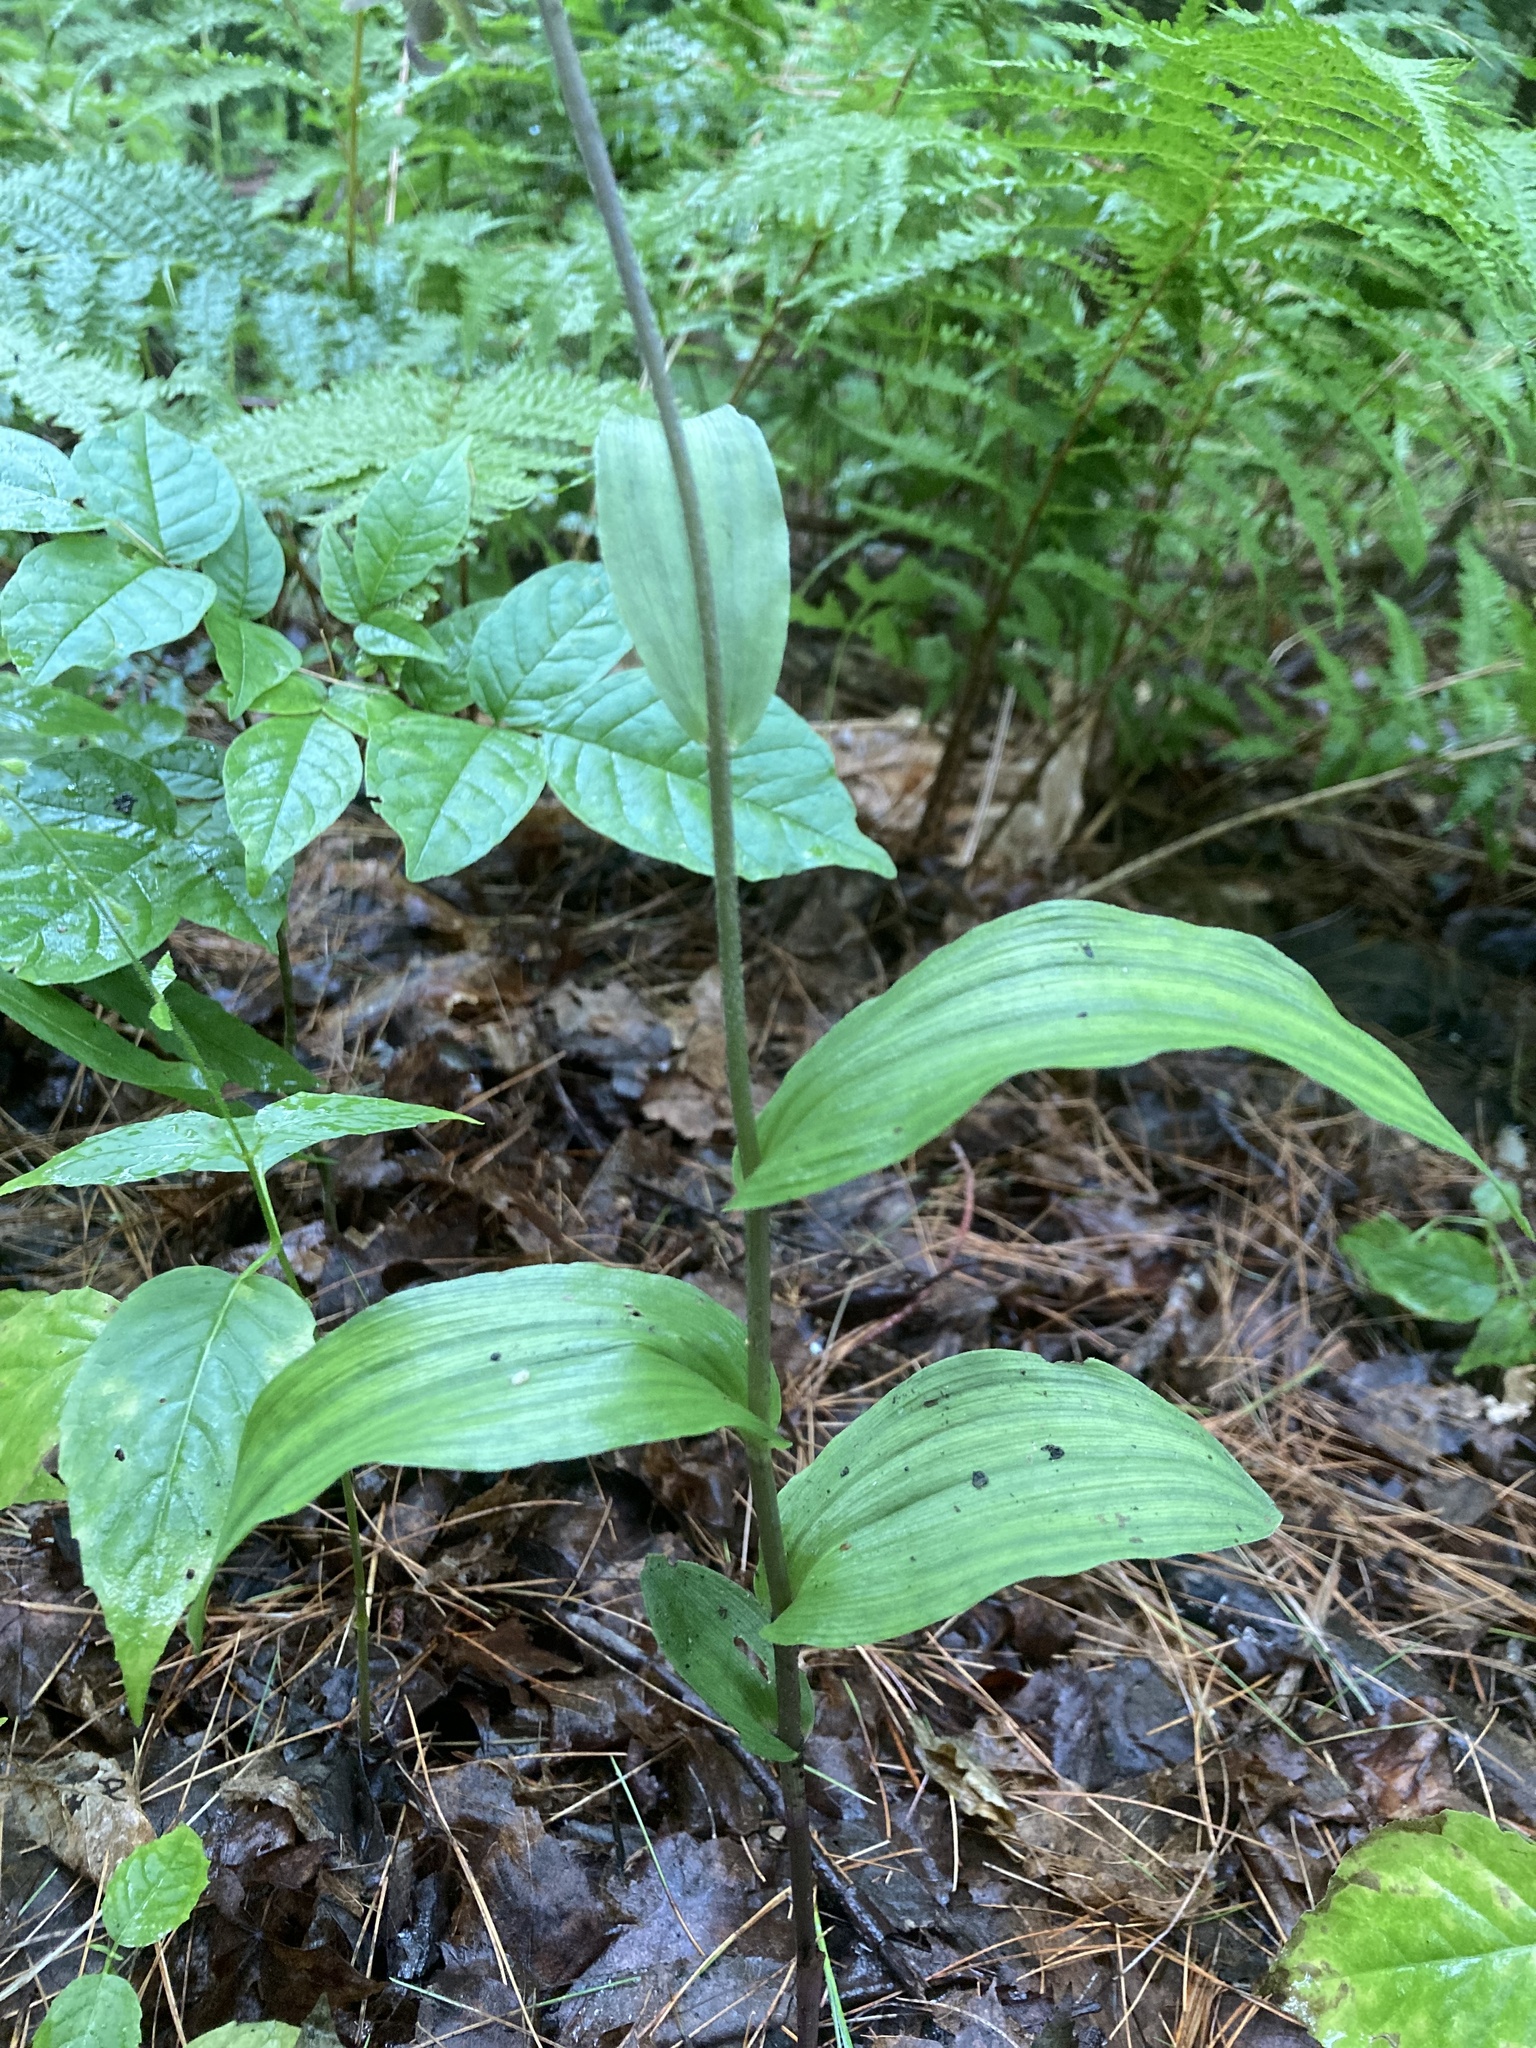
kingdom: Plantae
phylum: Tracheophyta
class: Liliopsida
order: Asparagales
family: Orchidaceae
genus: Epipactis
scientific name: Epipactis helleborine
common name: Broad-leaved helleborine
